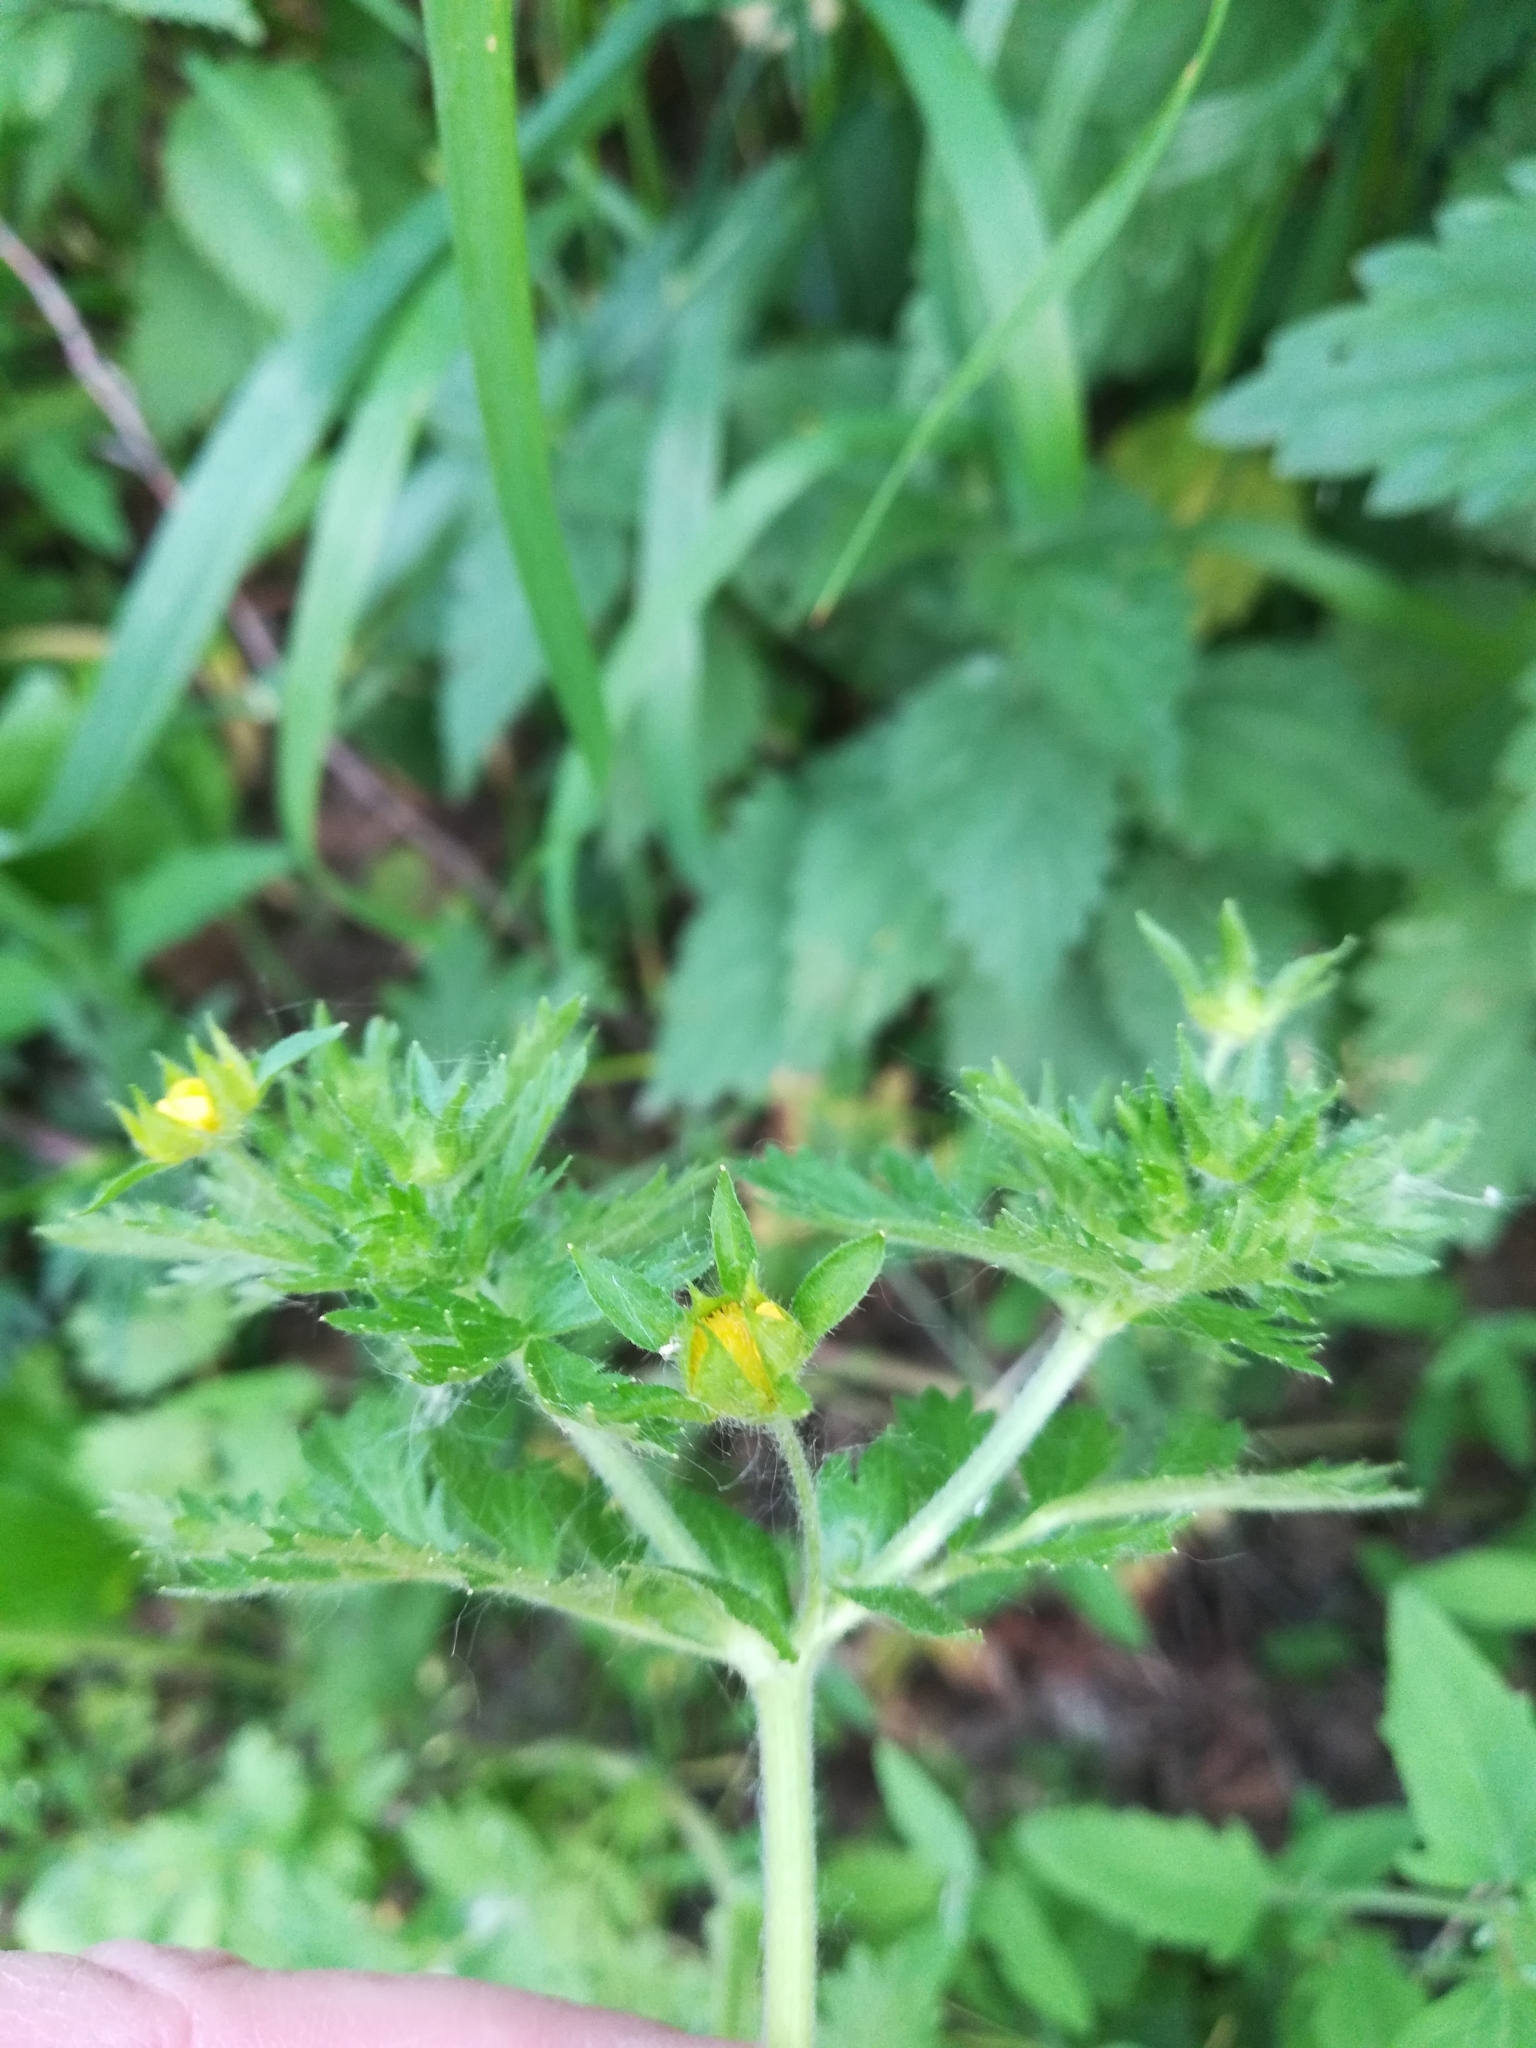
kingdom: Plantae
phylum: Tracheophyta
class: Magnoliopsida
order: Rosales
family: Rosaceae
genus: Potentilla
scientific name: Potentilla supina
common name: Prostrate cinquefoil
